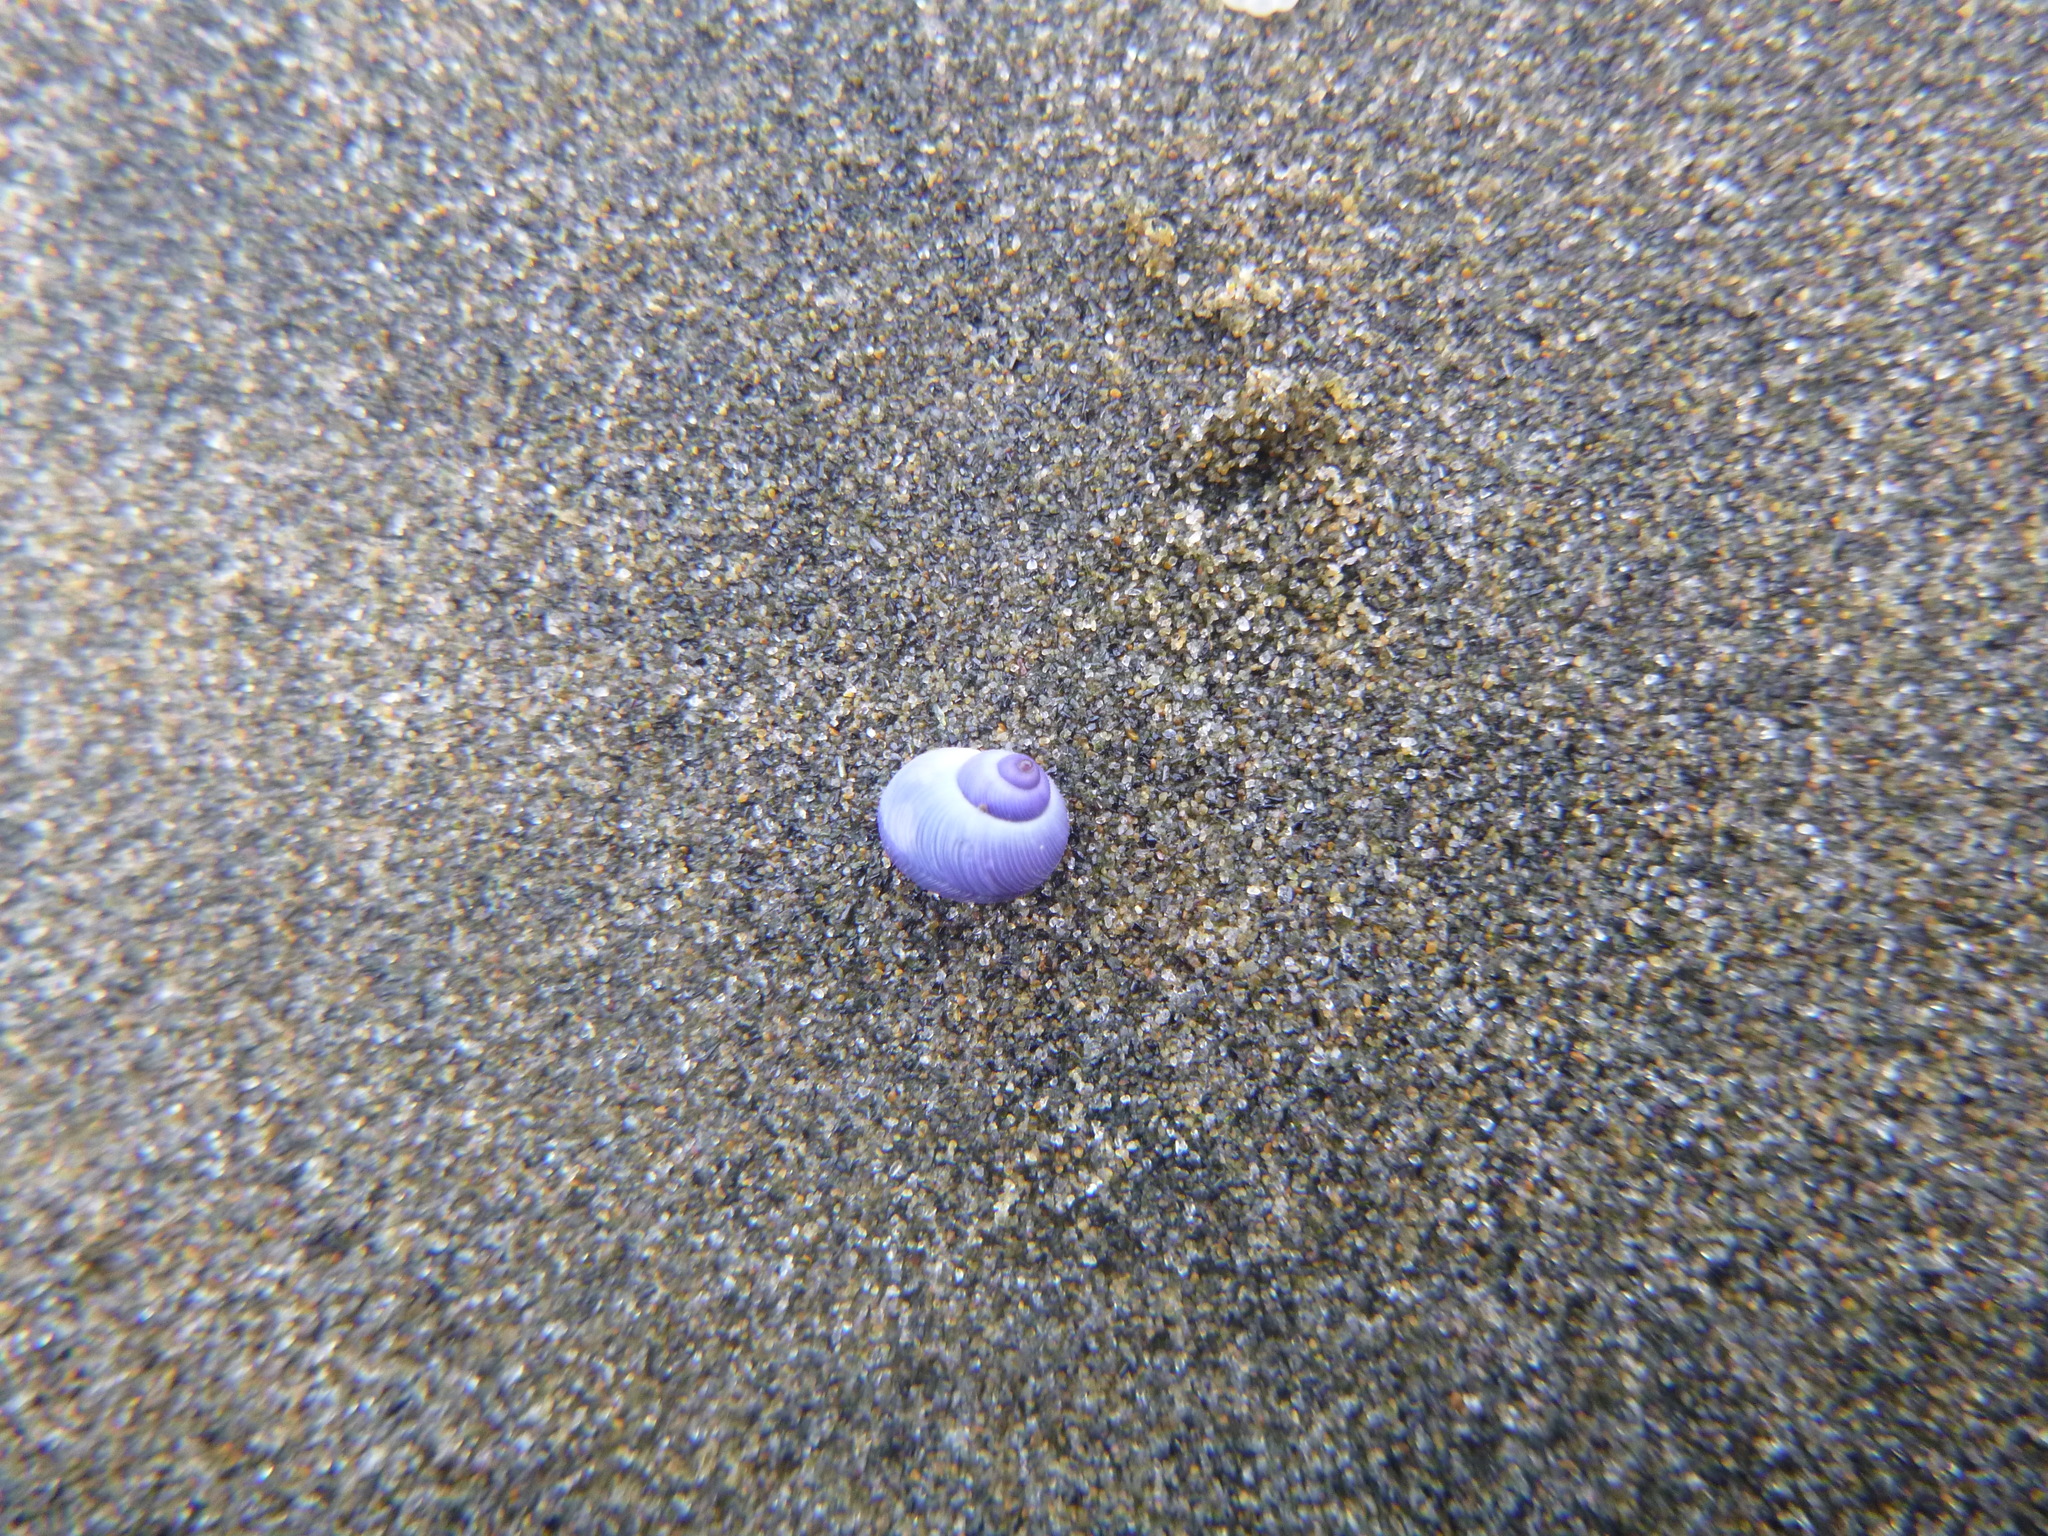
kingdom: Animalia
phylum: Mollusca
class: Gastropoda
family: Epitoniidae
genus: Janthina
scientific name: Janthina exigua
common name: Dwarf janthina
